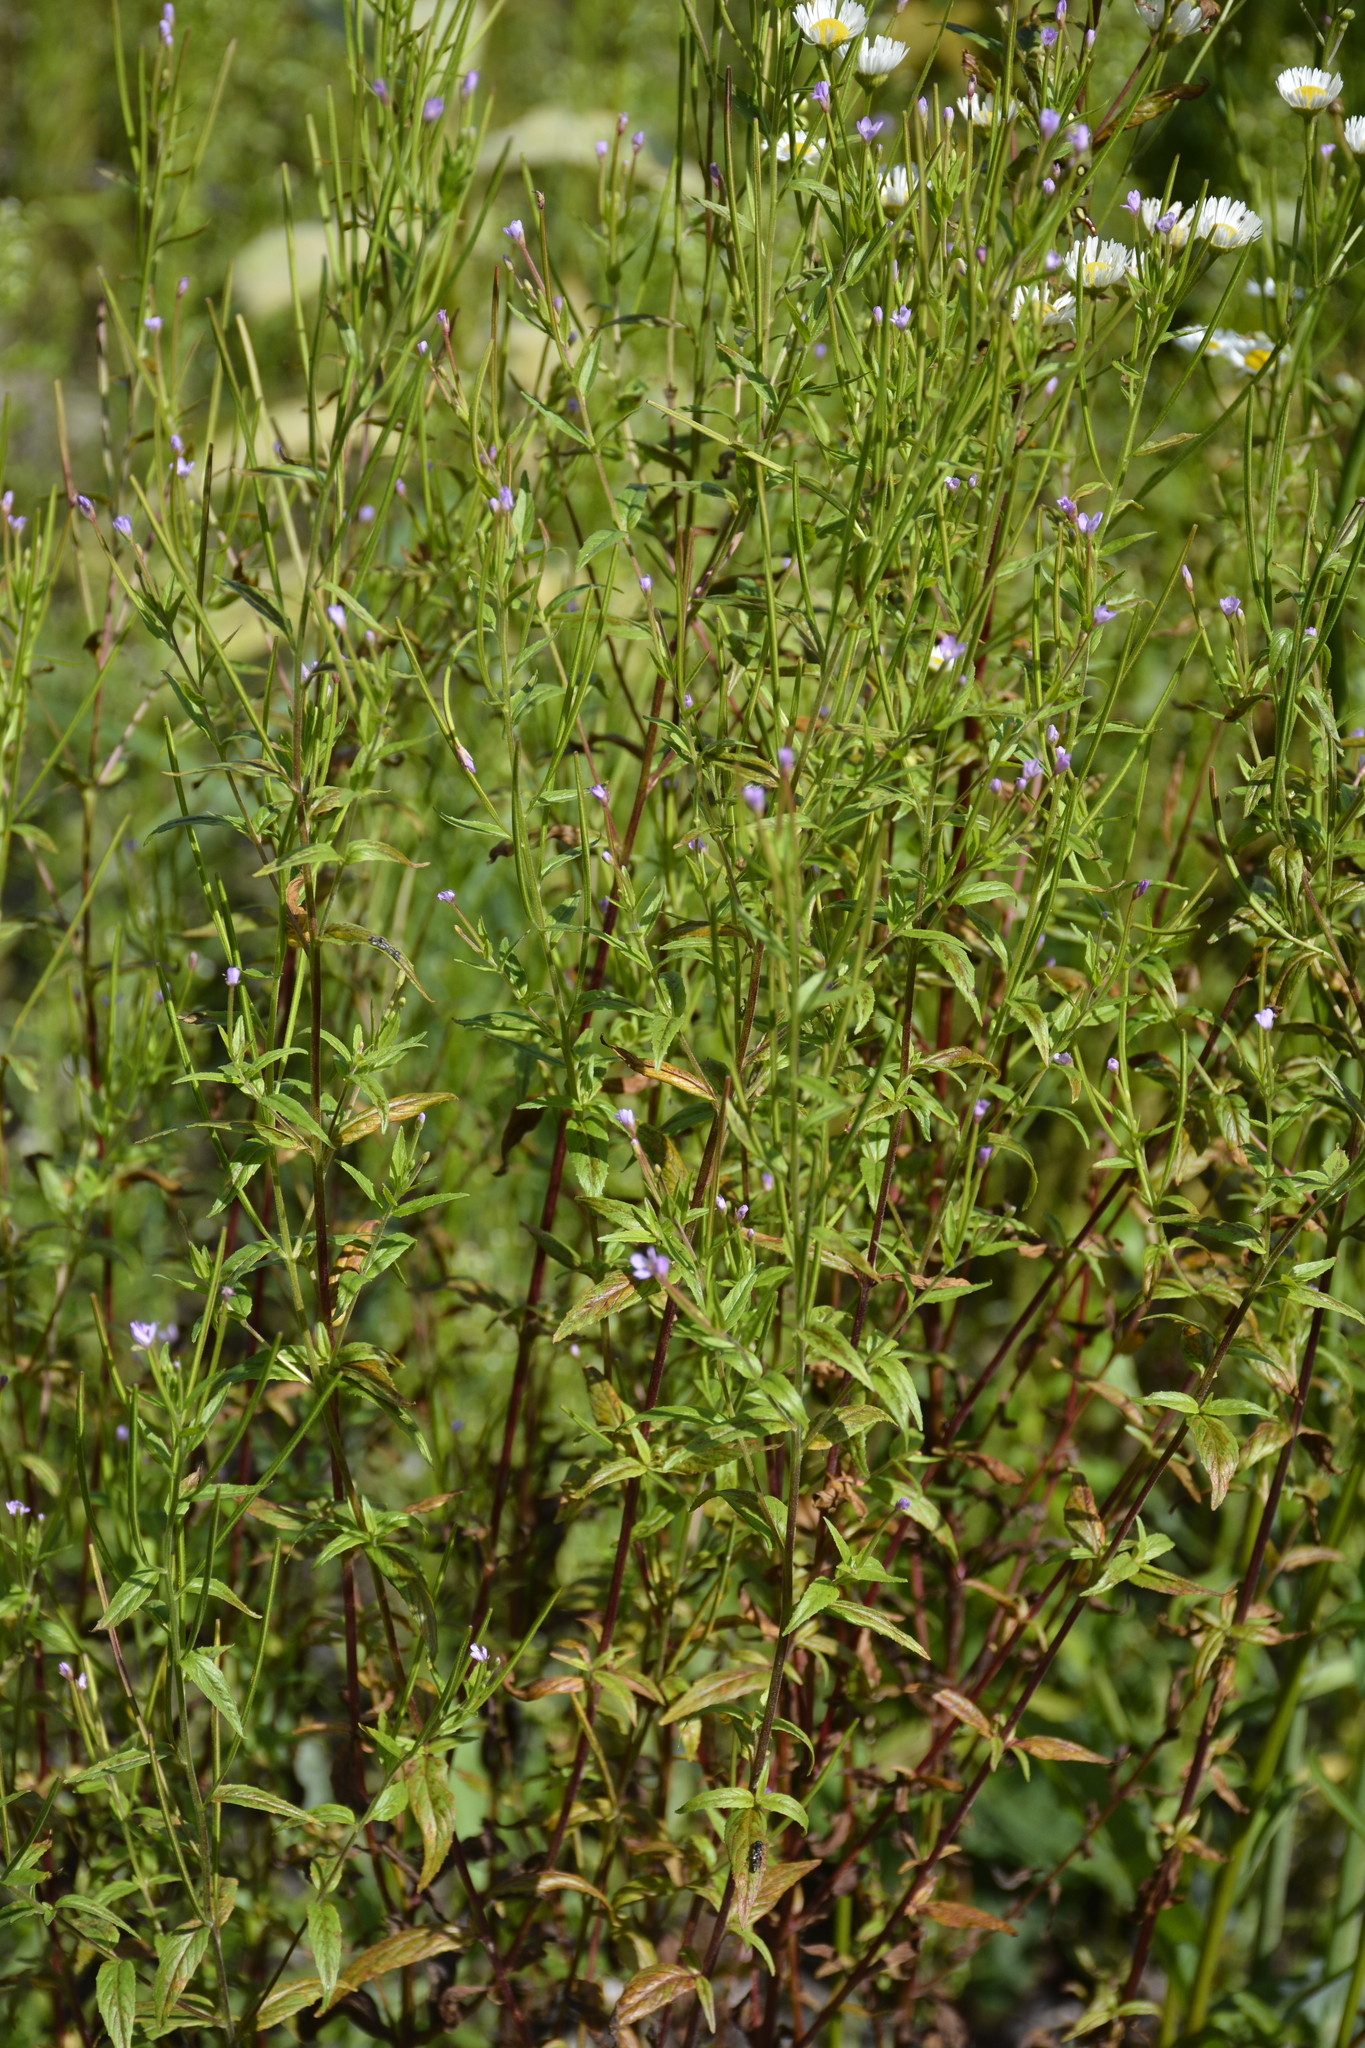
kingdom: Plantae
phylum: Tracheophyta
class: Magnoliopsida
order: Myrtales
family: Onagraceae
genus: Epilobium
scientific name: Epilobium ciliatum
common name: American willowherb
